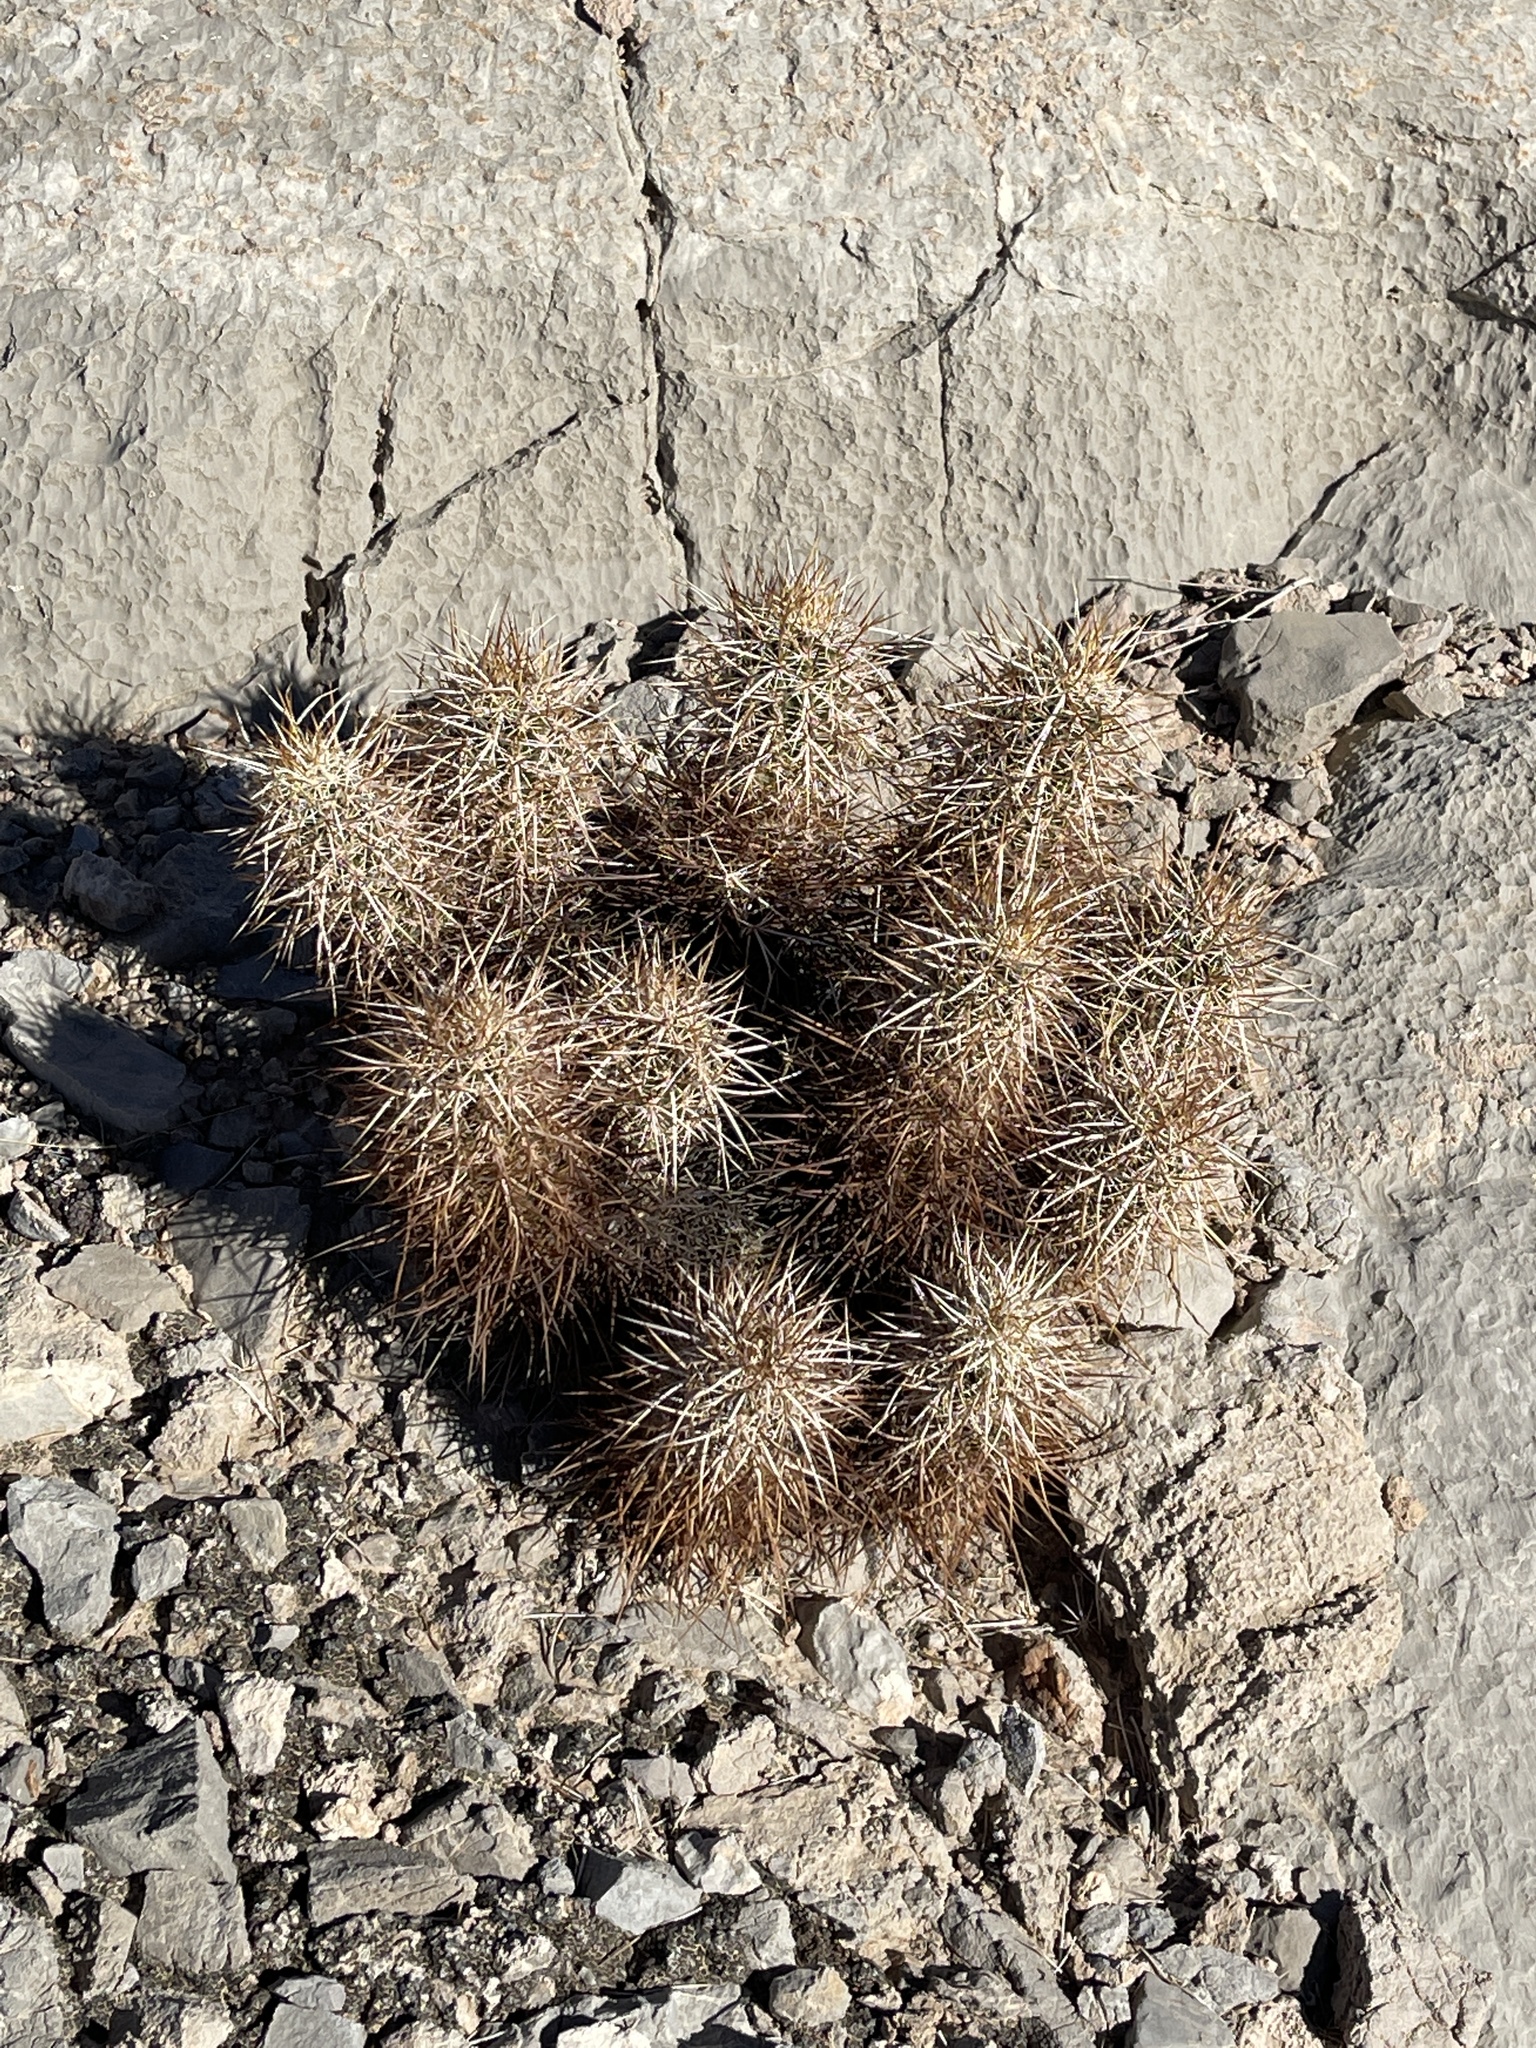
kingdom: Plantae
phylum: Tracheophyta
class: Magnoliopsida
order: Caryophyllales
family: Cactaceae
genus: Echinocereus
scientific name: Echinocereus engelmannii
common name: Engelmann's hedgehog cactus
